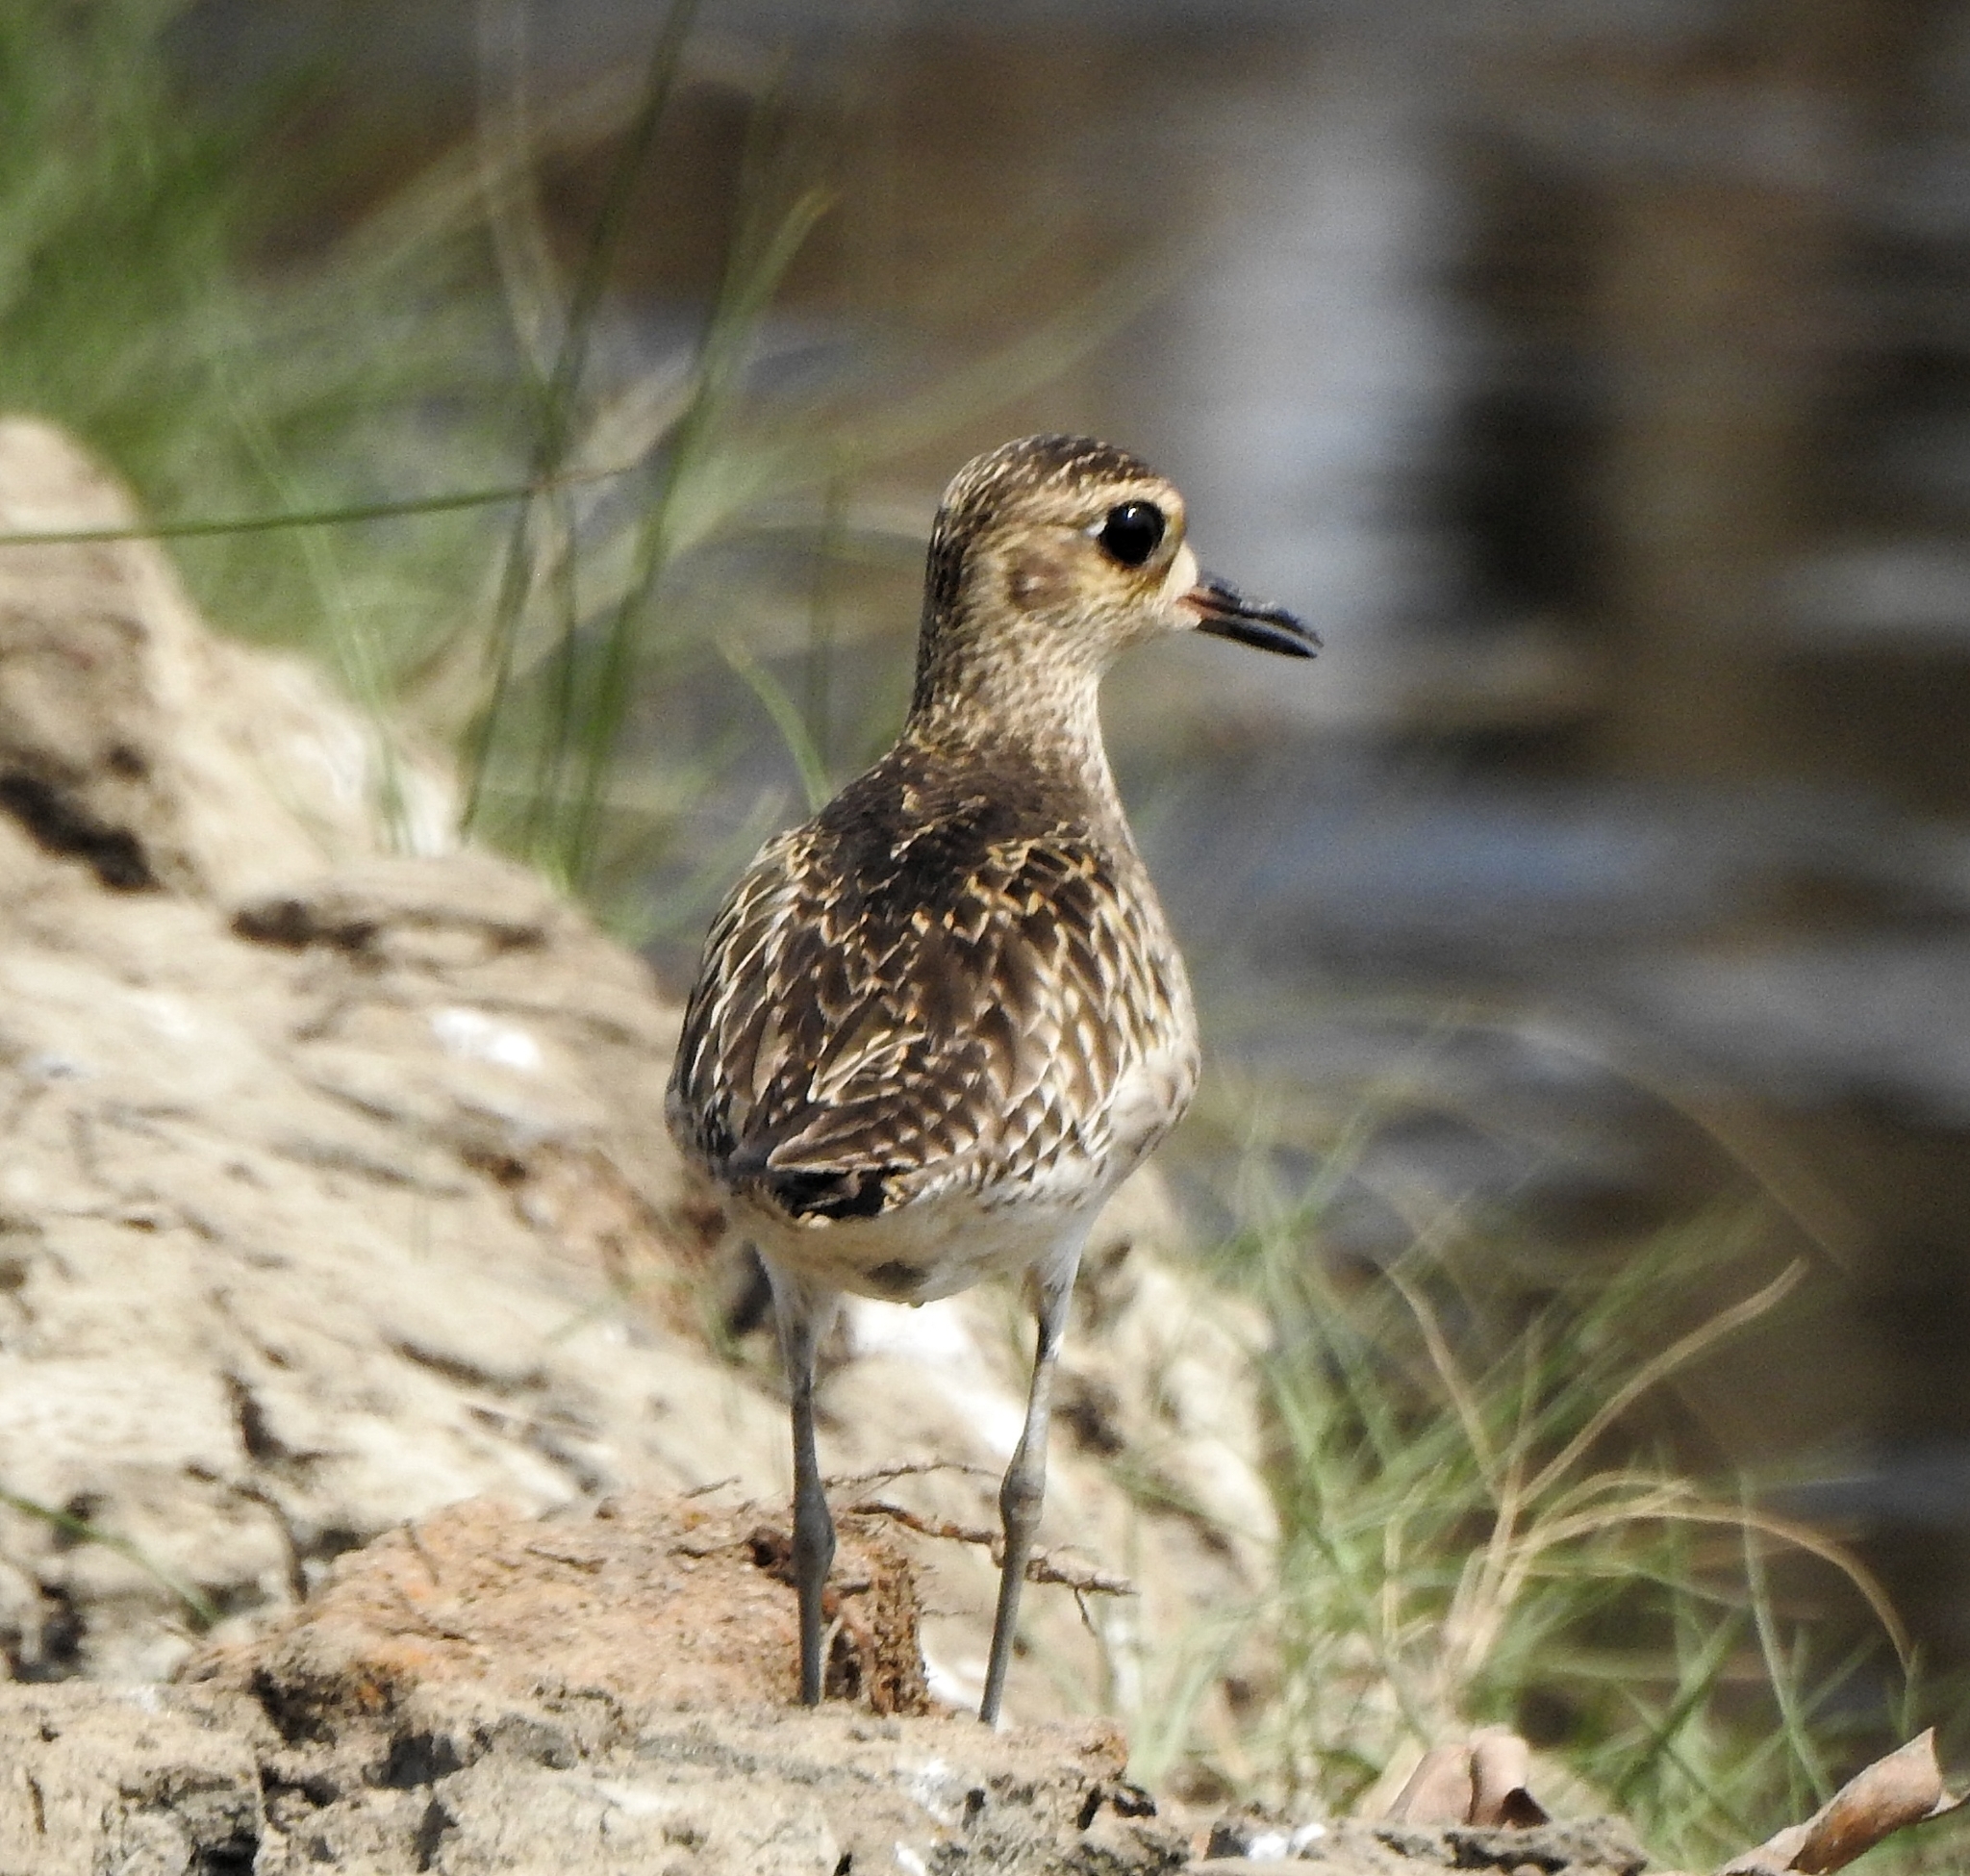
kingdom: Animalia
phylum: Chordata
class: Aves
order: Charadriiformes
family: Charadriidae
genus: Pluvialis
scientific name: Pluvialis fulva
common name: Pacific golden plover
